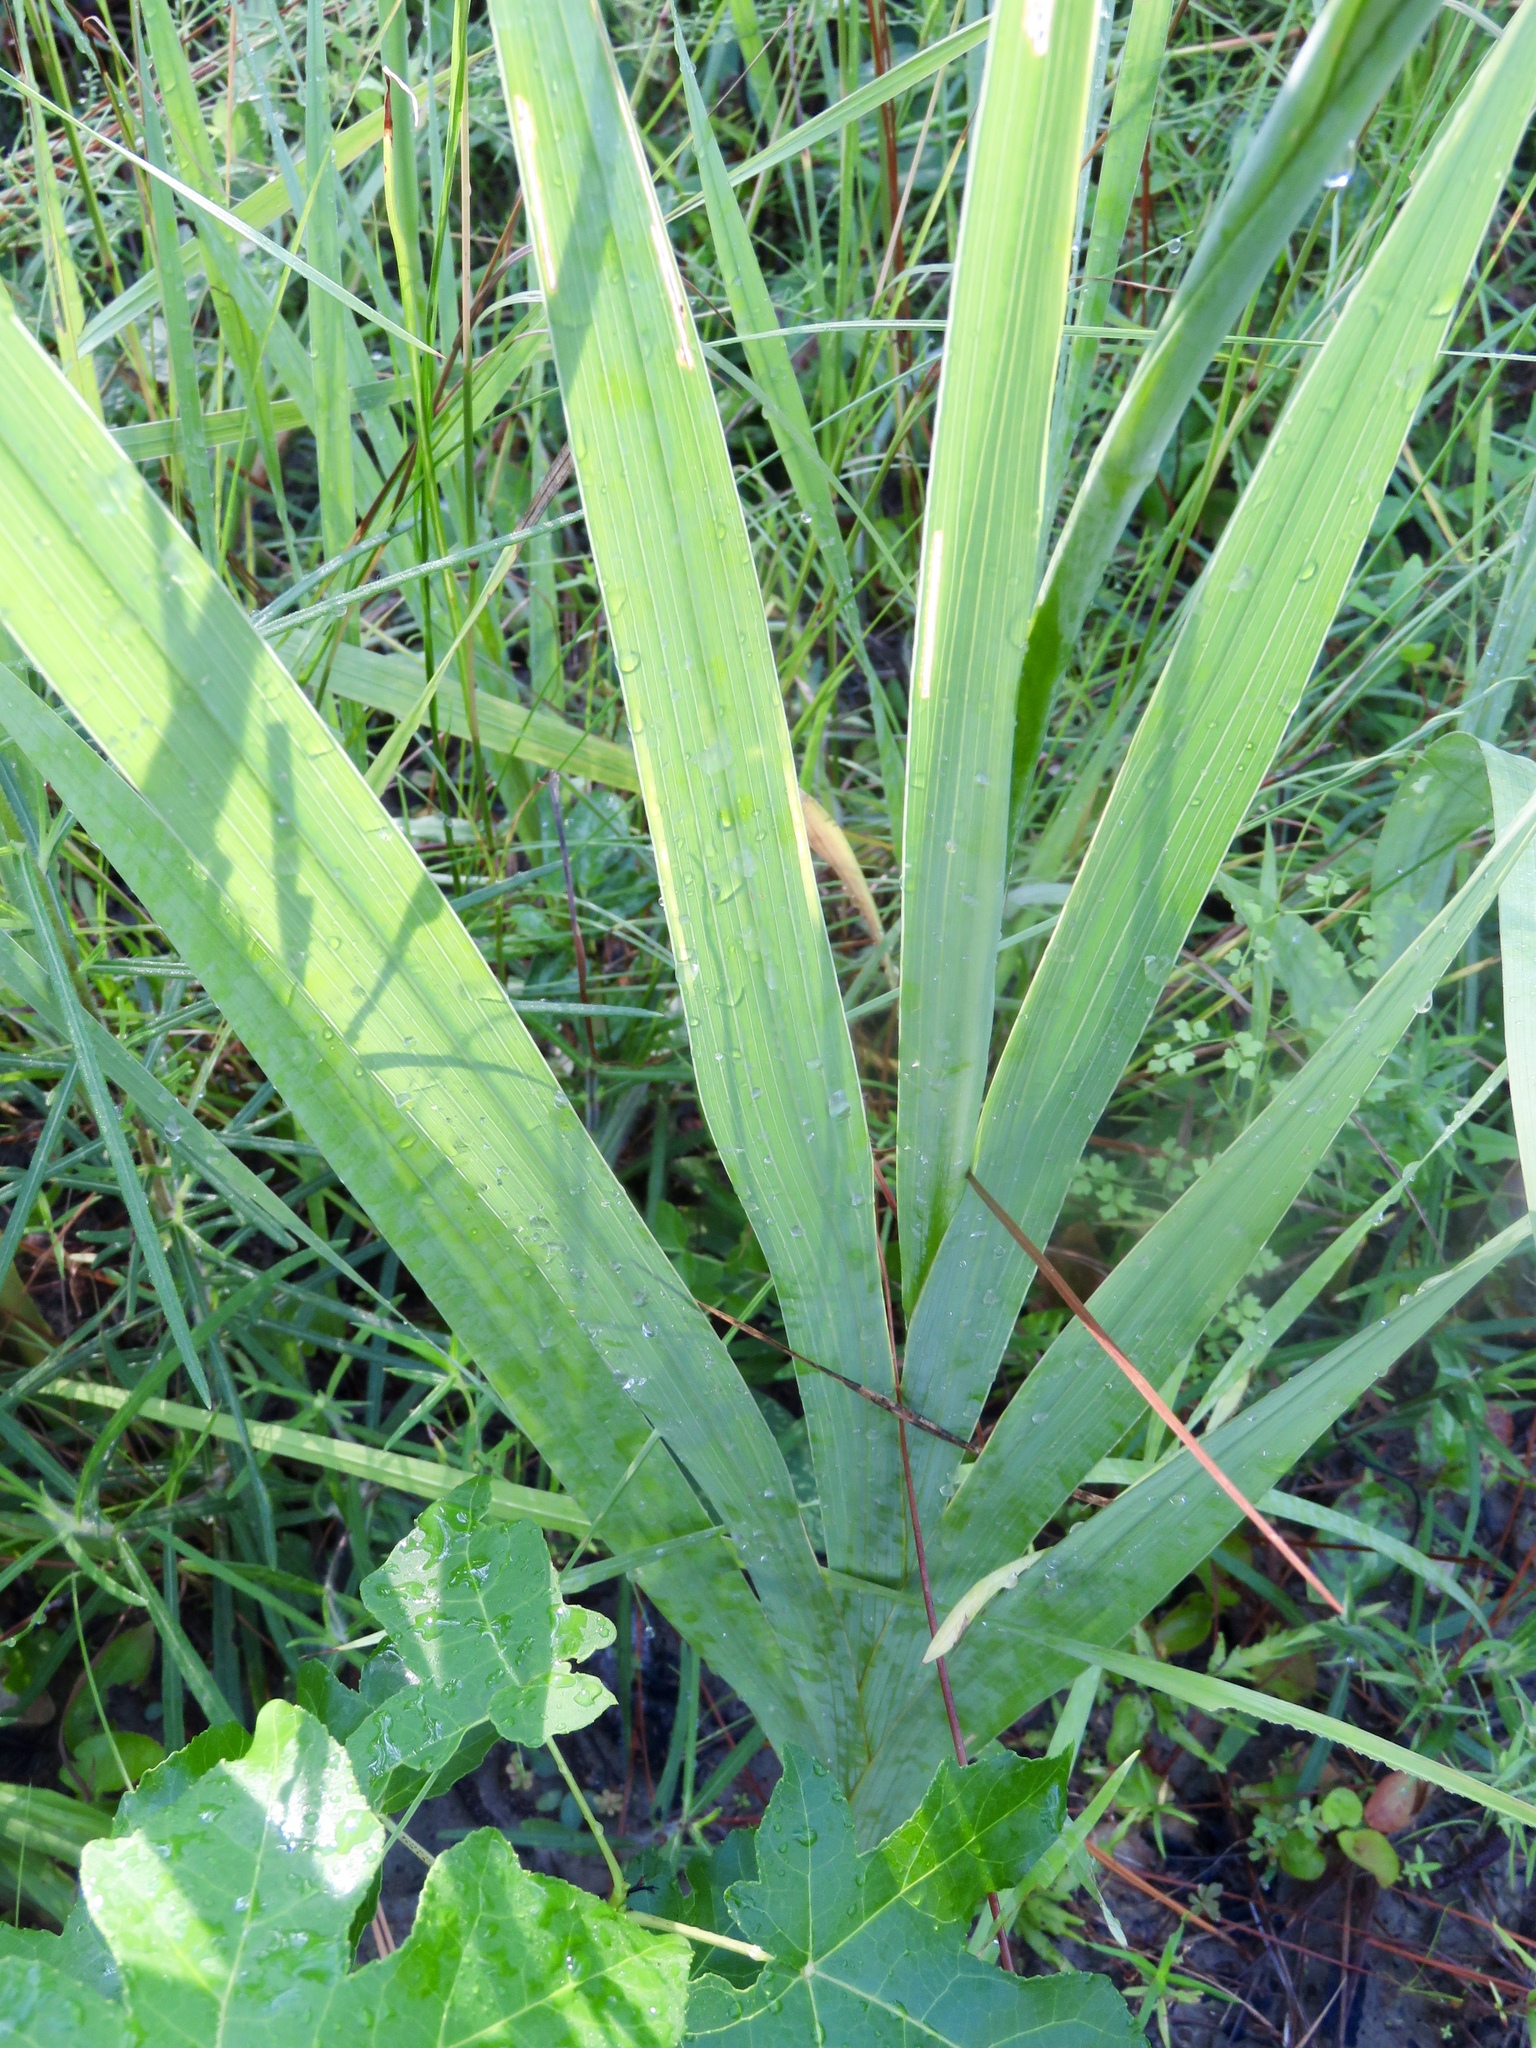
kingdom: Plantae
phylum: Tracheophyta
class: Liliopsida
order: Asparagales
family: Iridaceae
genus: Gladiolus
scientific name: Gladiolus communis
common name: Eastern gladiolus
